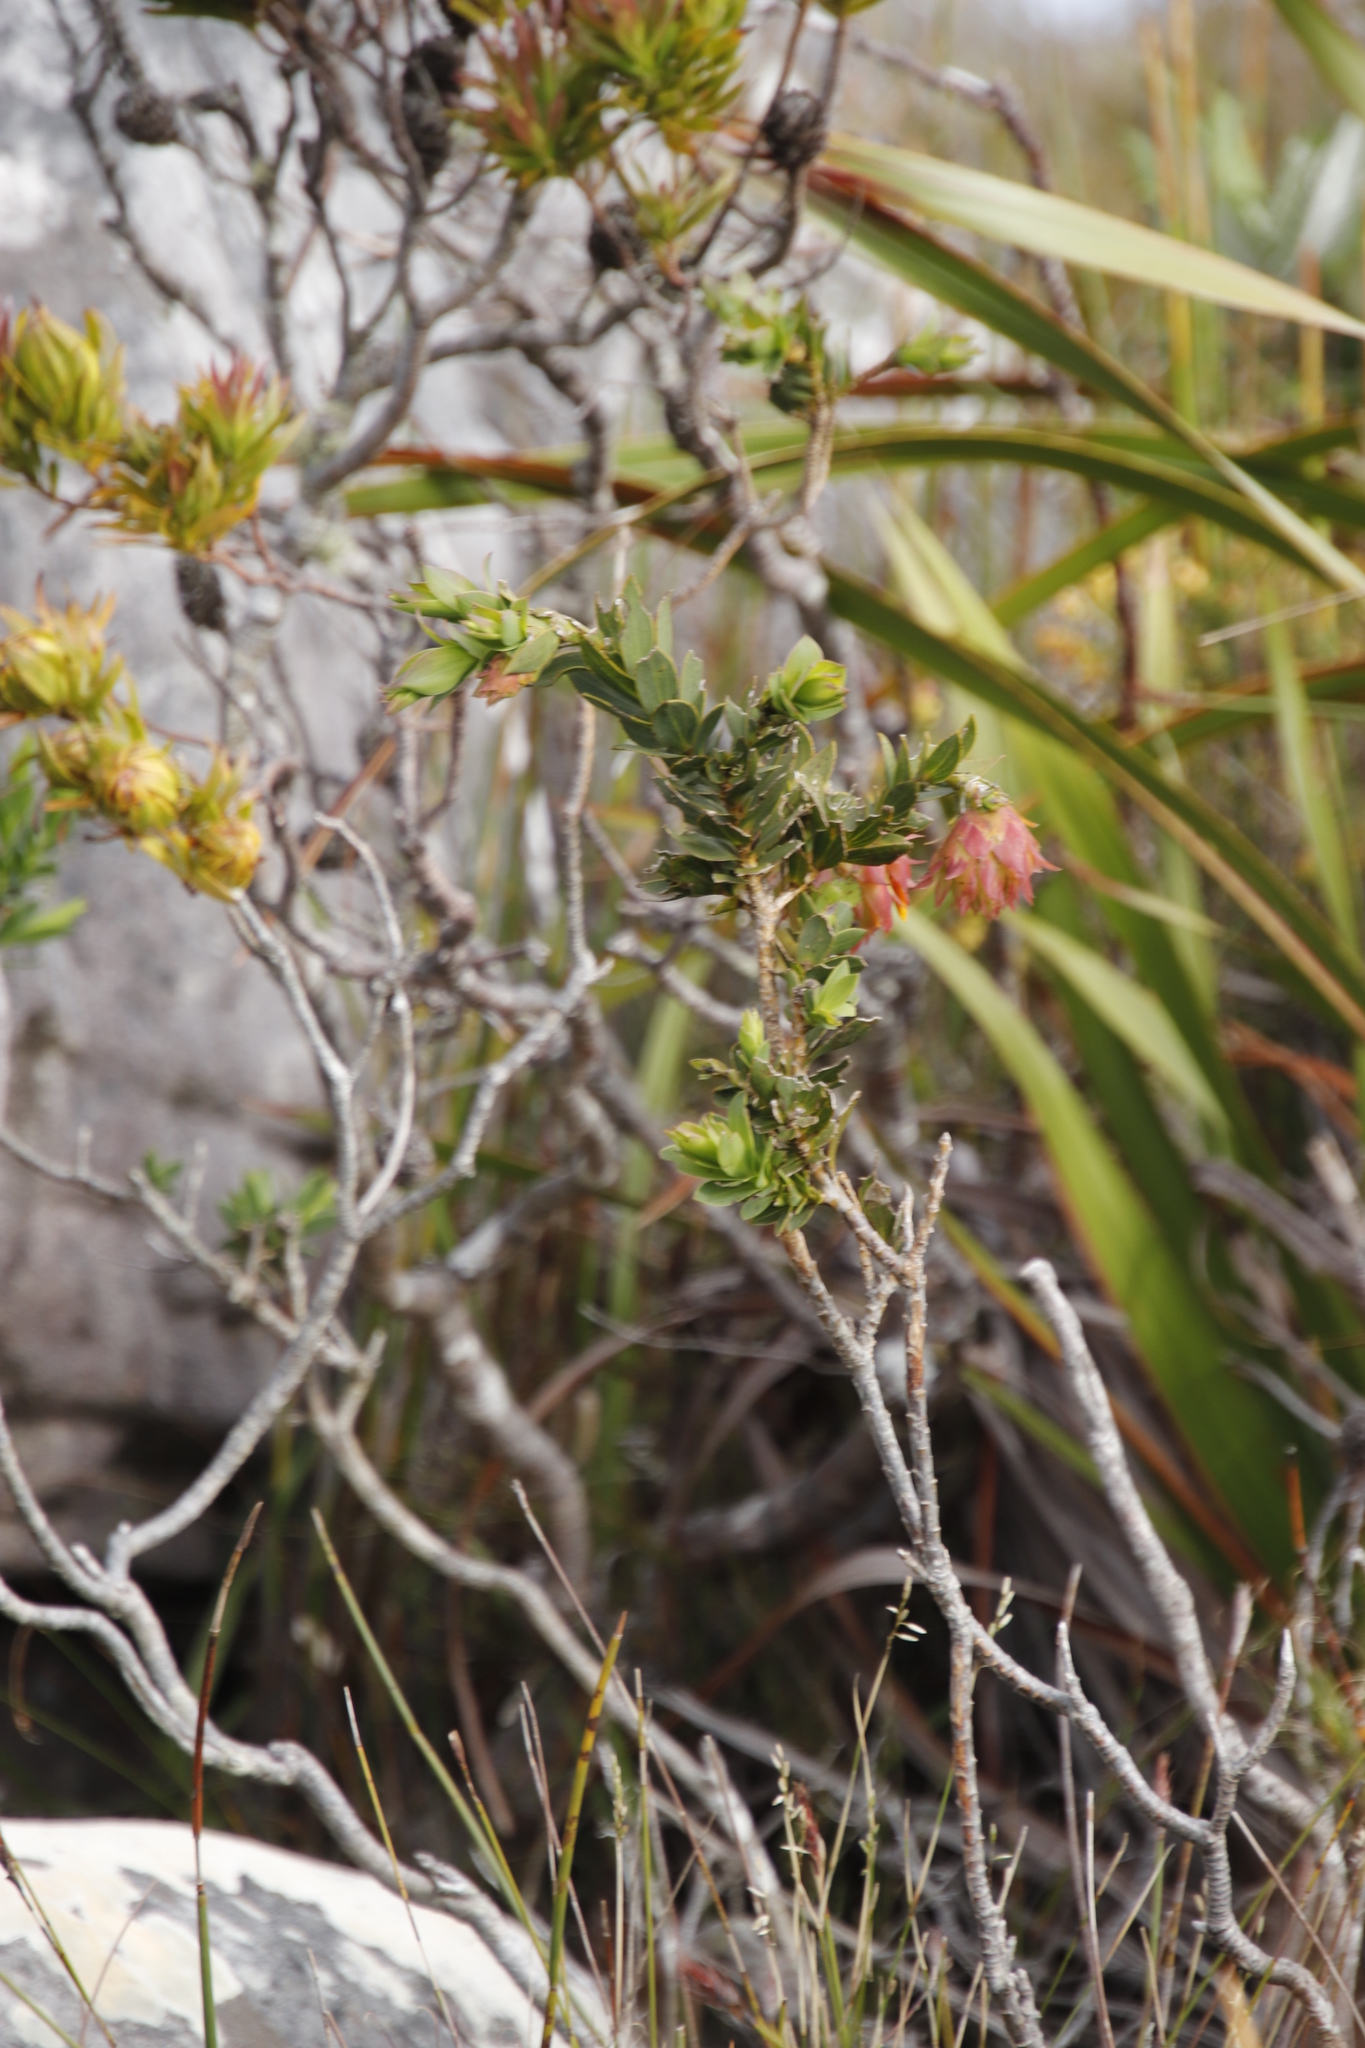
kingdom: Plantae
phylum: Tracheophyta
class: Magnoliopsida
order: Fabales
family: Fabaceae
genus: Liparia
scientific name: Liparia splendens
